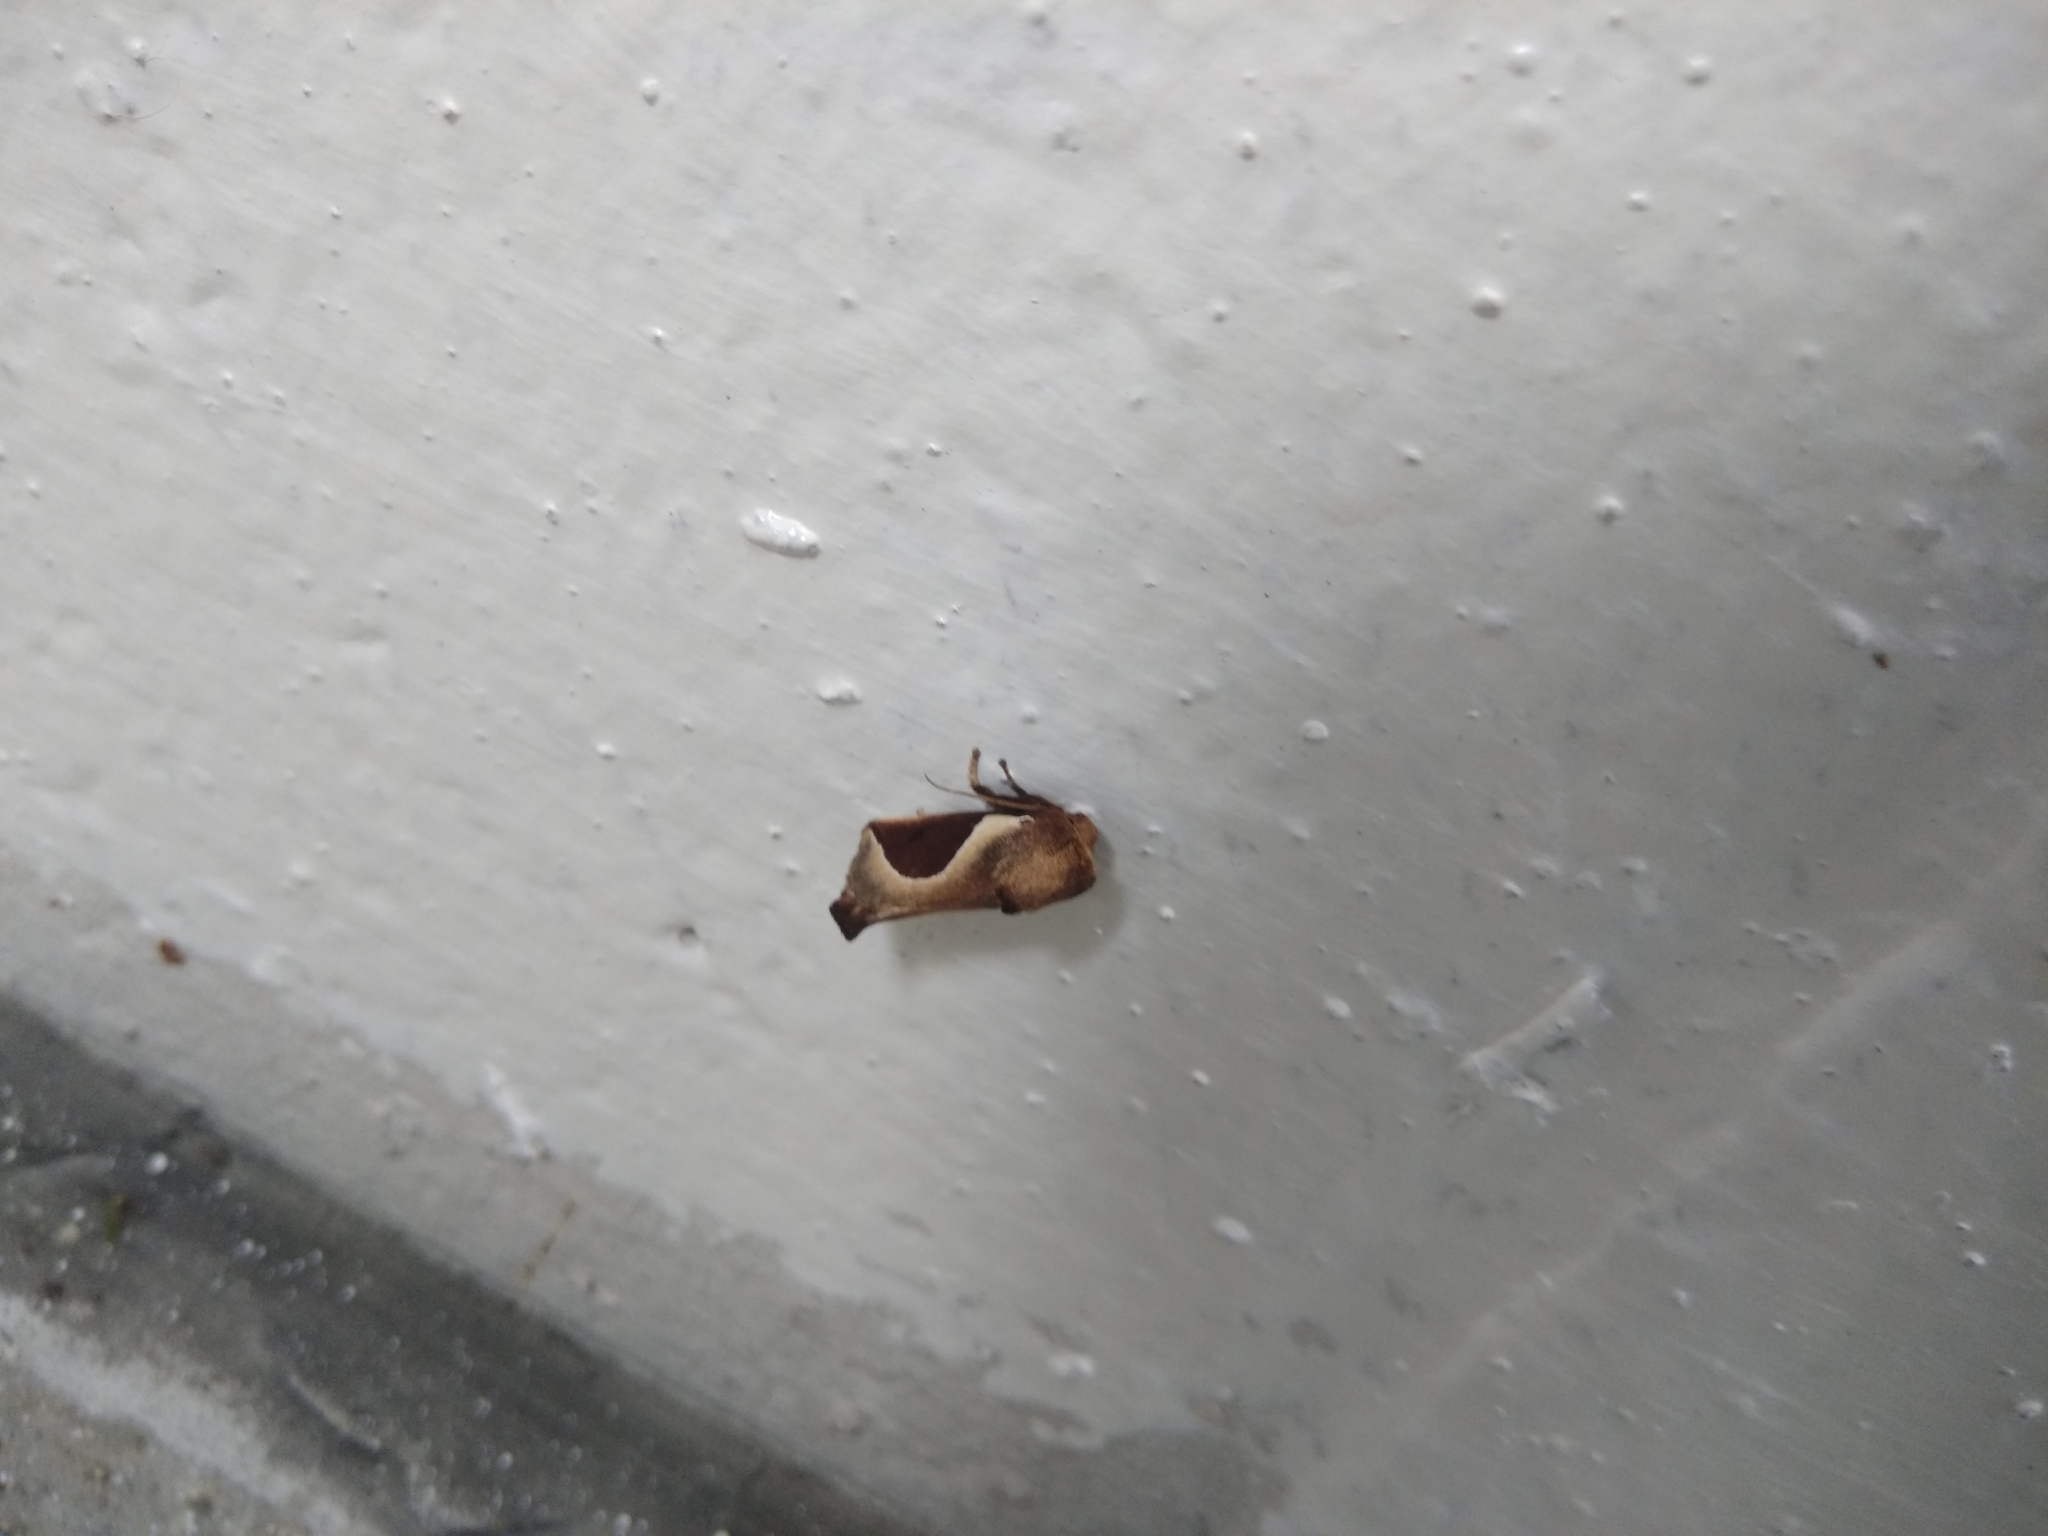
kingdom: Animalia
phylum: Arthropoda
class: Insecta
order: Lepidoptera
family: Limacodidae
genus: Prolimacodes
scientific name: Prolimacodes badia
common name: Skiff moth
